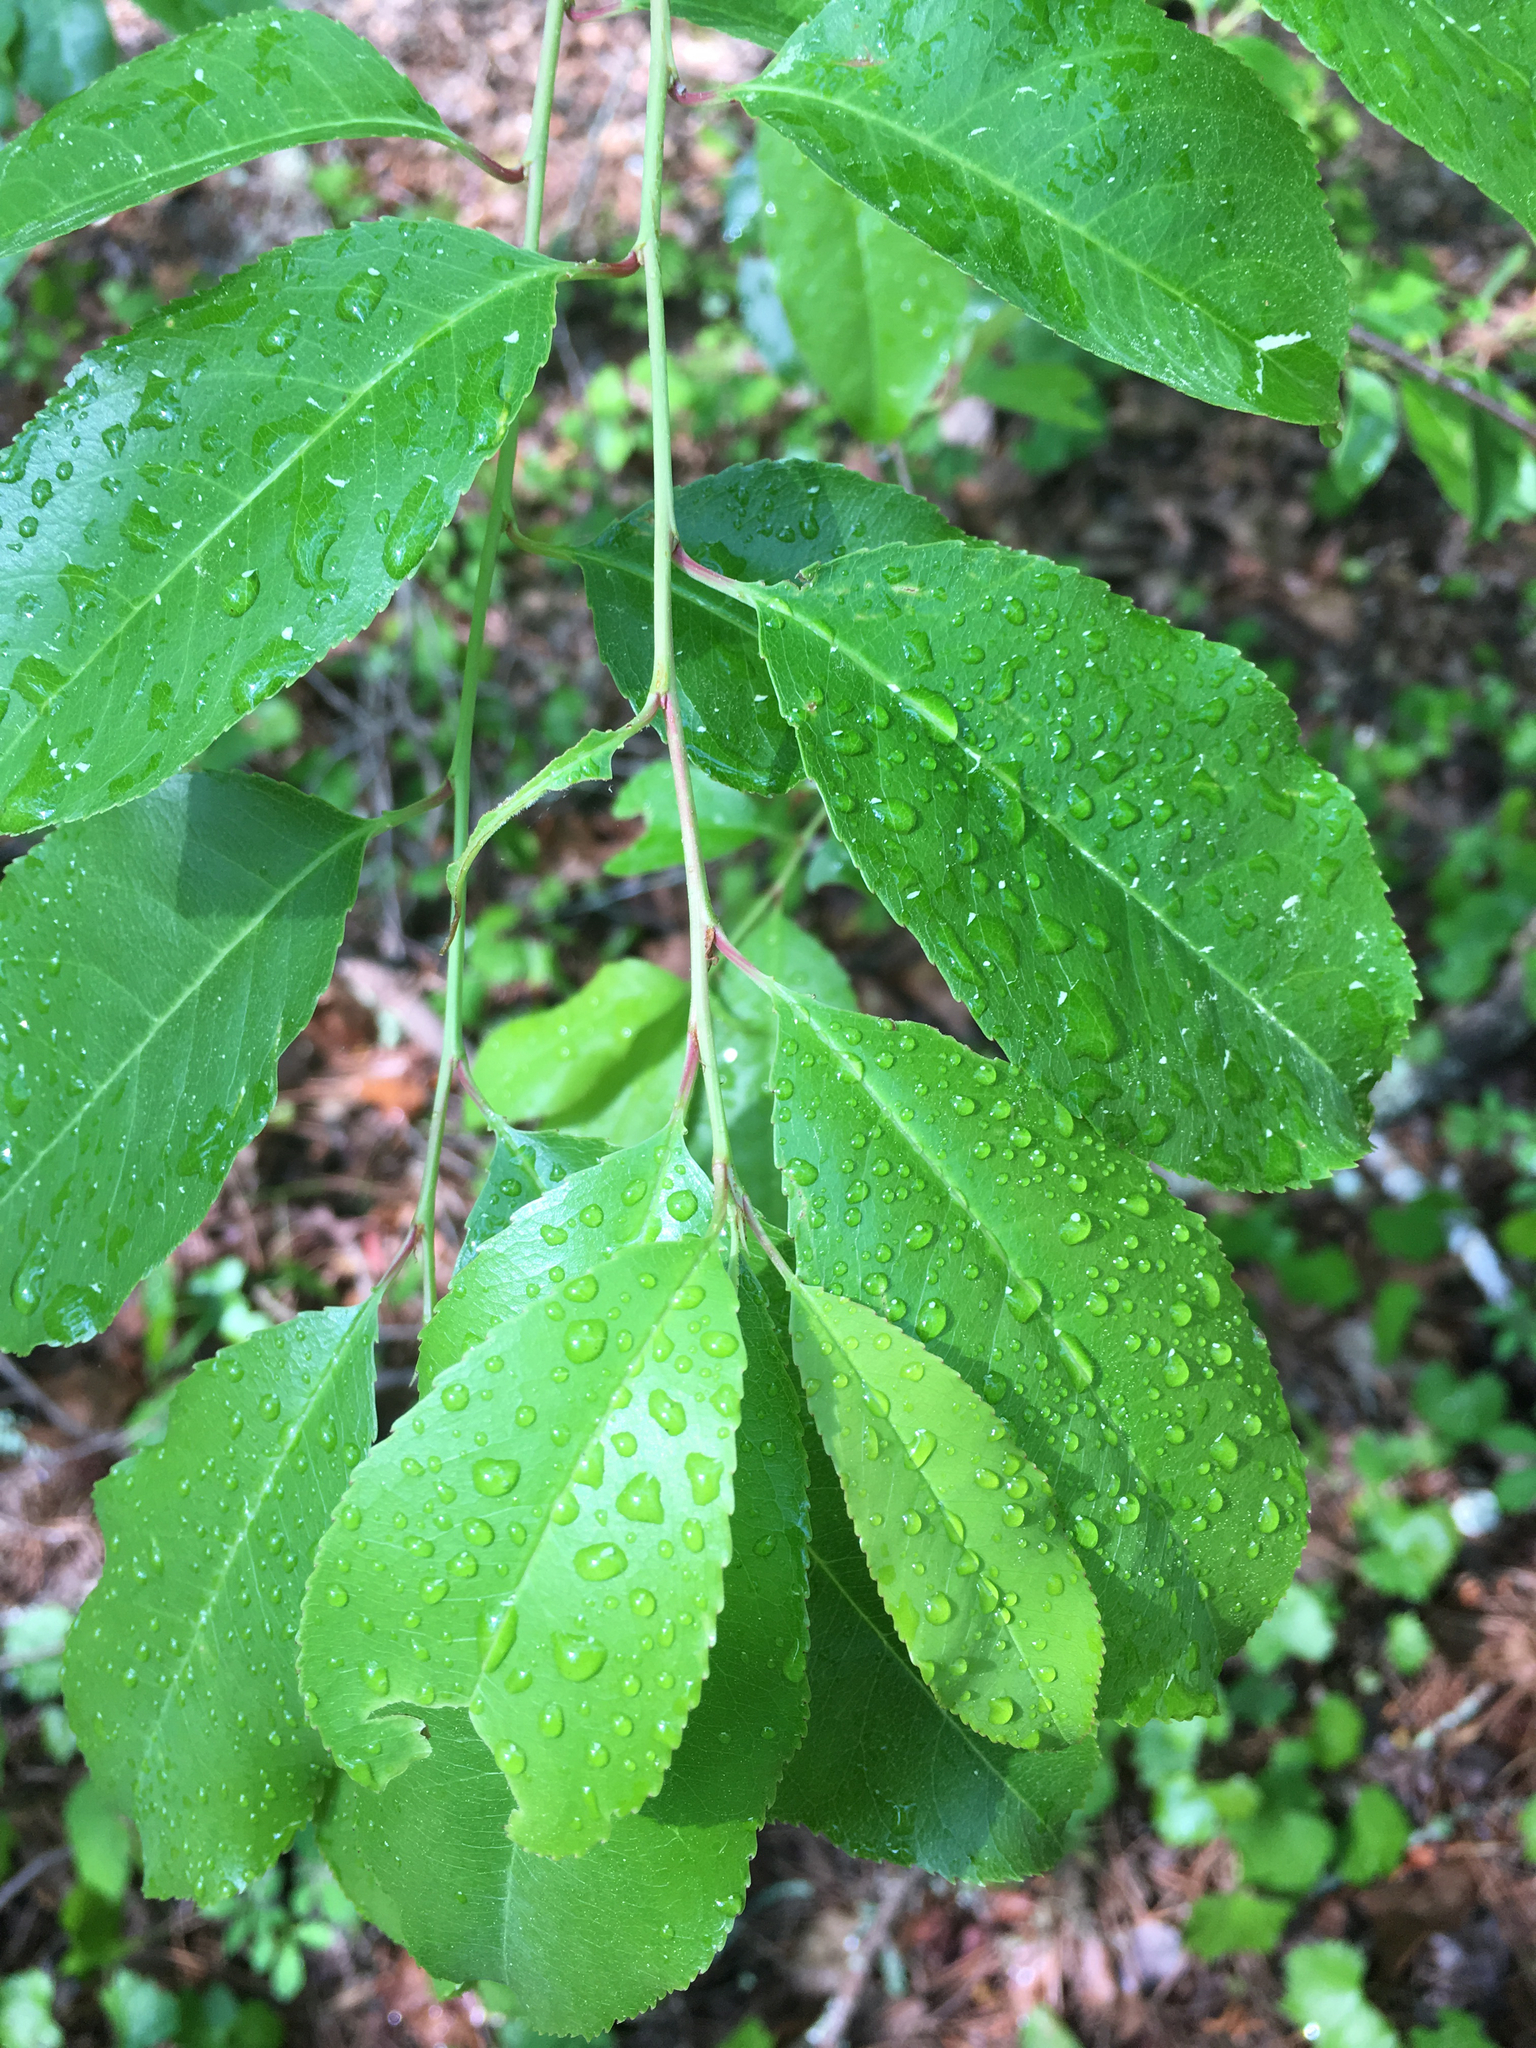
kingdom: Plantae
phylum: Tracheophyta
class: Magnoliopsida
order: Rosales
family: Rosaceae
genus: Prunus
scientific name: Prunus serotina
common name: Black cherry
